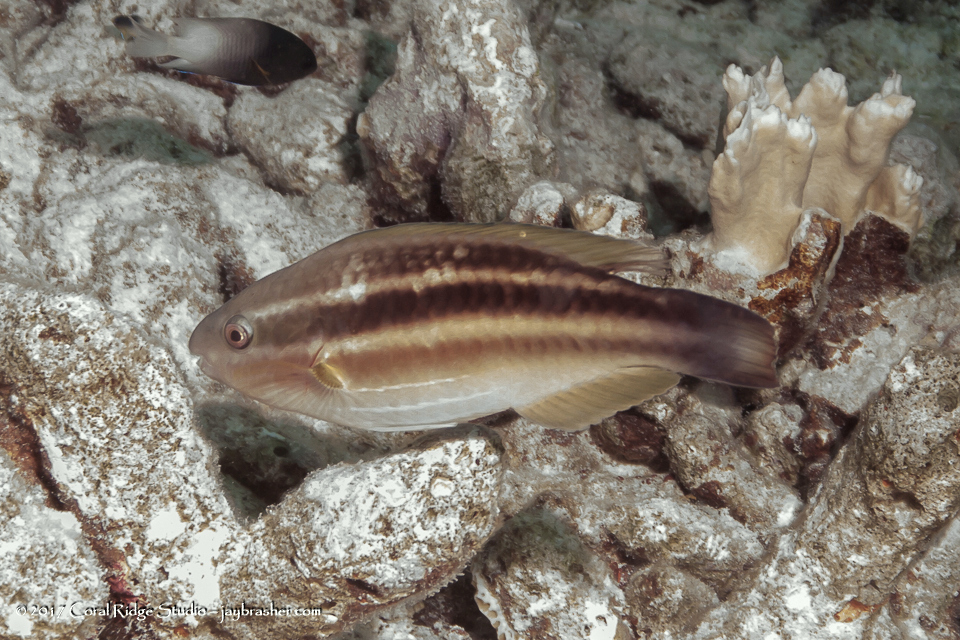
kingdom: Animalia
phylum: Chordata
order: Perciformes
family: Scaridae
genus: Scarus
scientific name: Scarus taeniopterus
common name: Princess parrotfish
